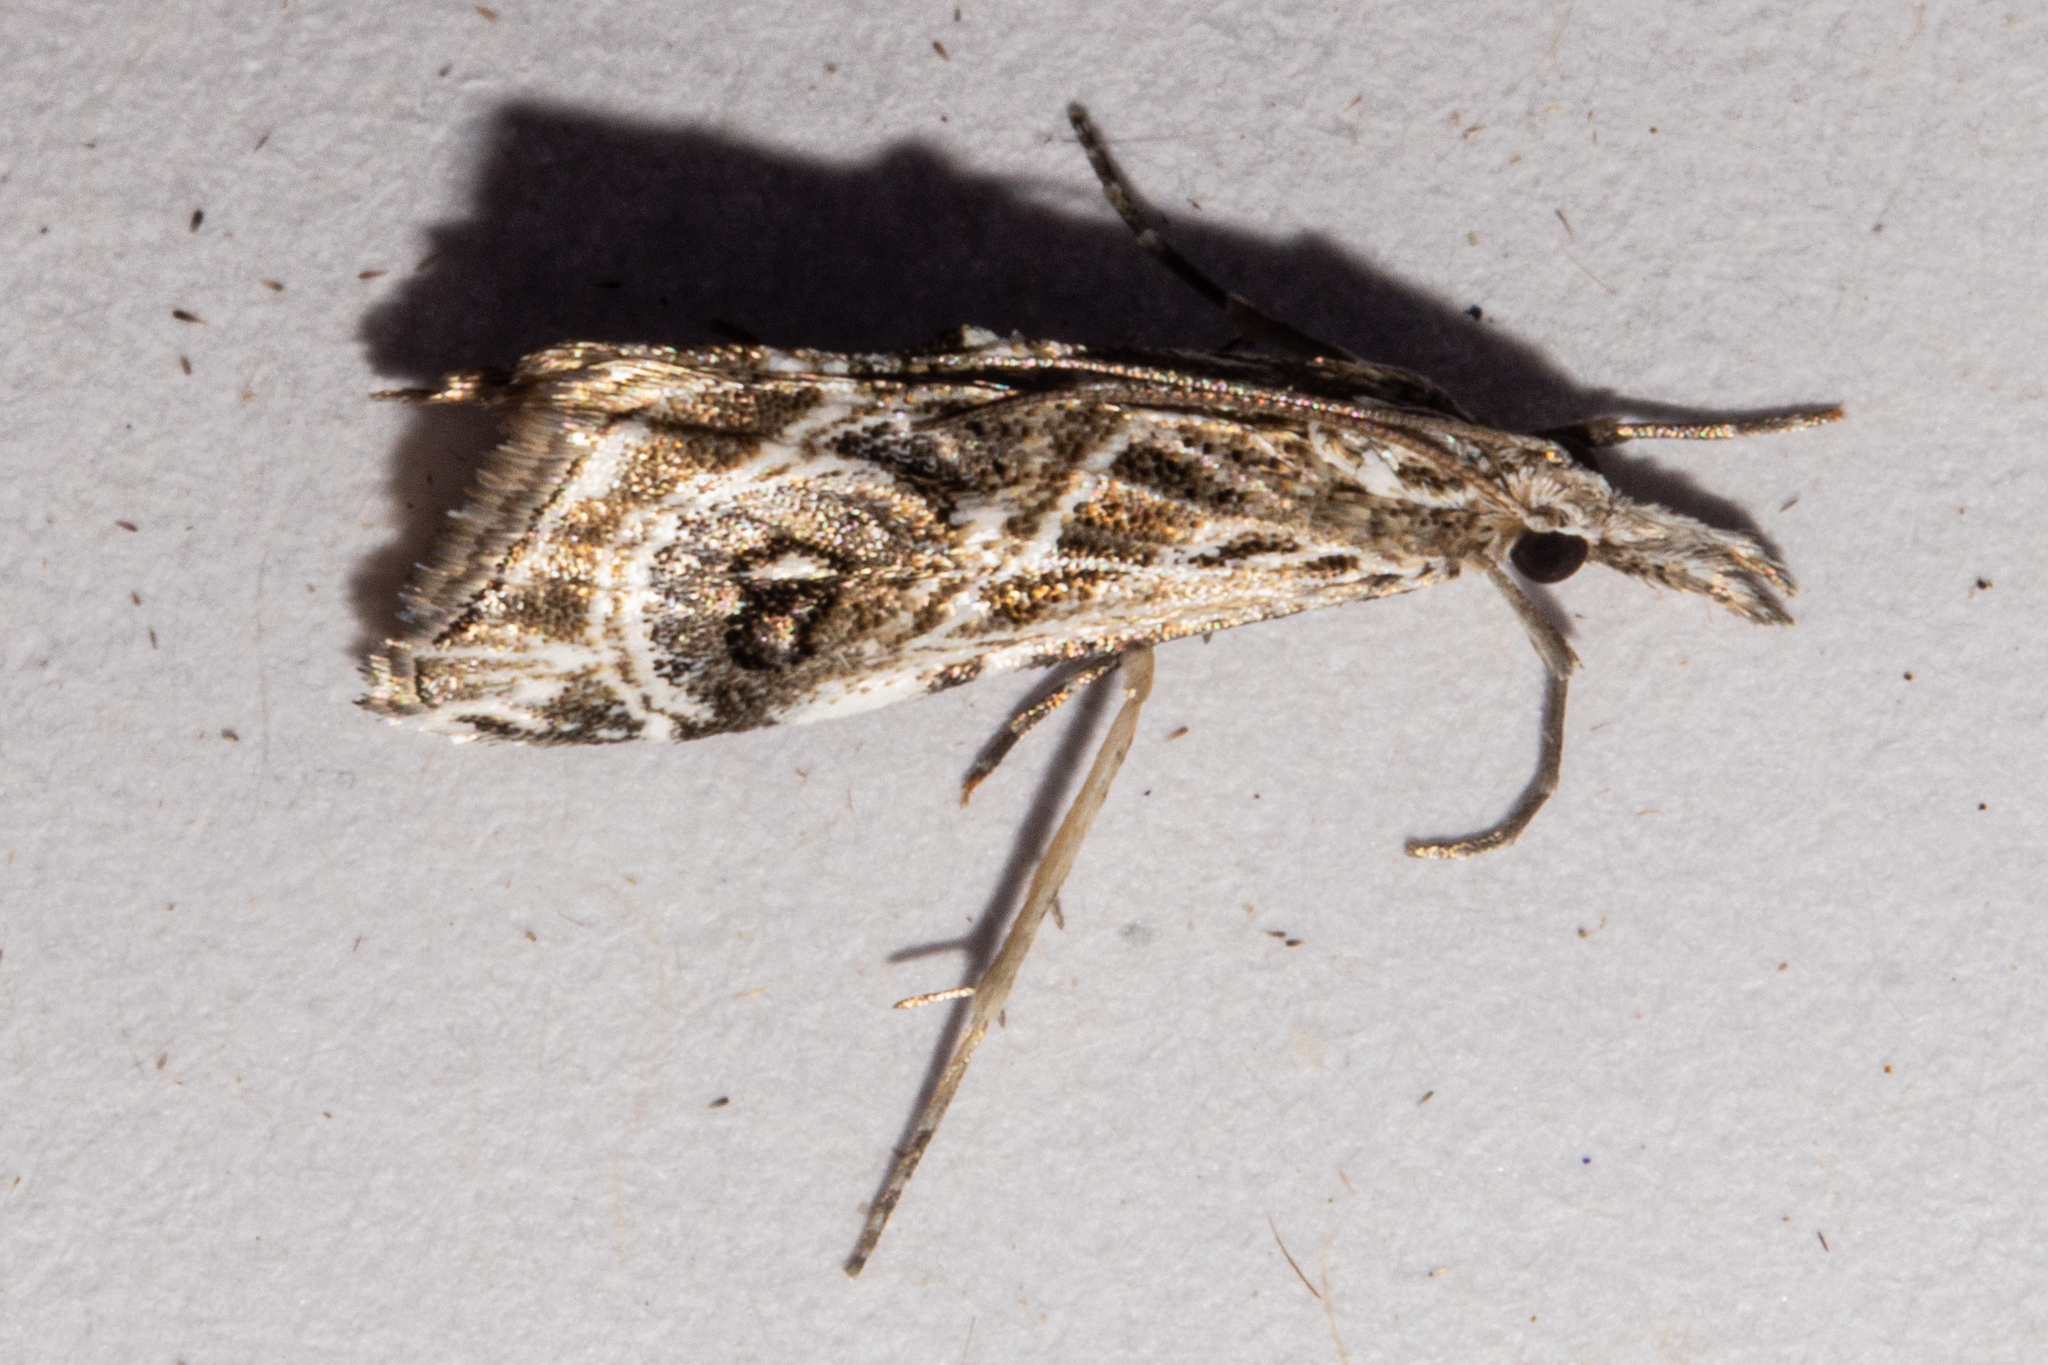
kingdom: Animalia
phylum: Arthropoda
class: Insecta
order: Lepidoptera
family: Crambidae
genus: Gadira
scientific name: Gadira acerella
